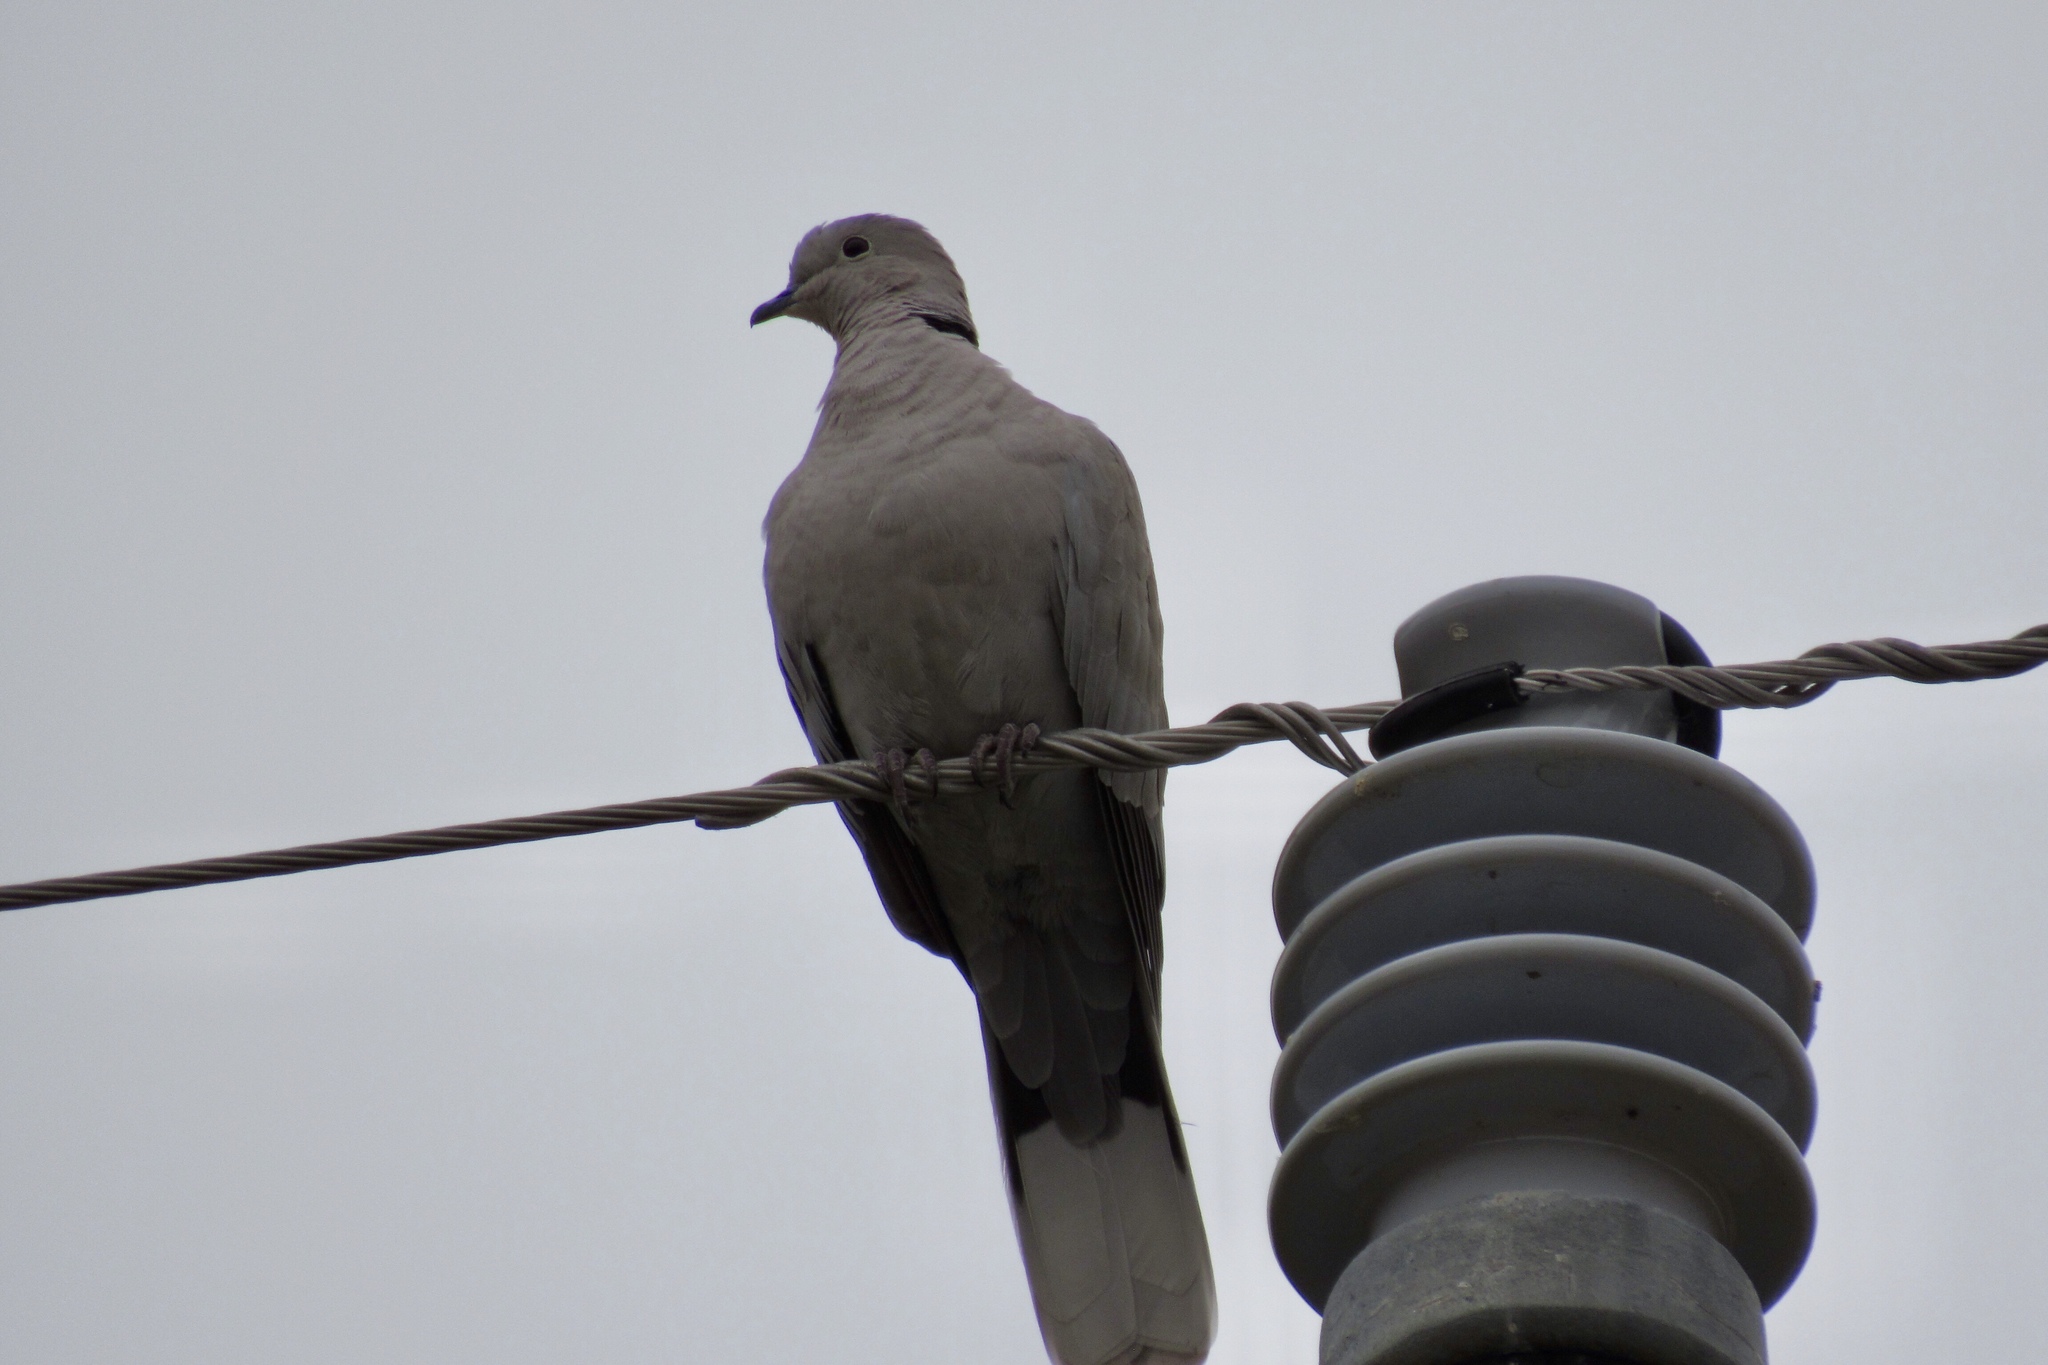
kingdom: Animalia
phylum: Chordata
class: Aves
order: Columbiformes
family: Columbidae
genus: Streptopelia
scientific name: Streptopelia decaocto
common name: Eurasian collared dove
